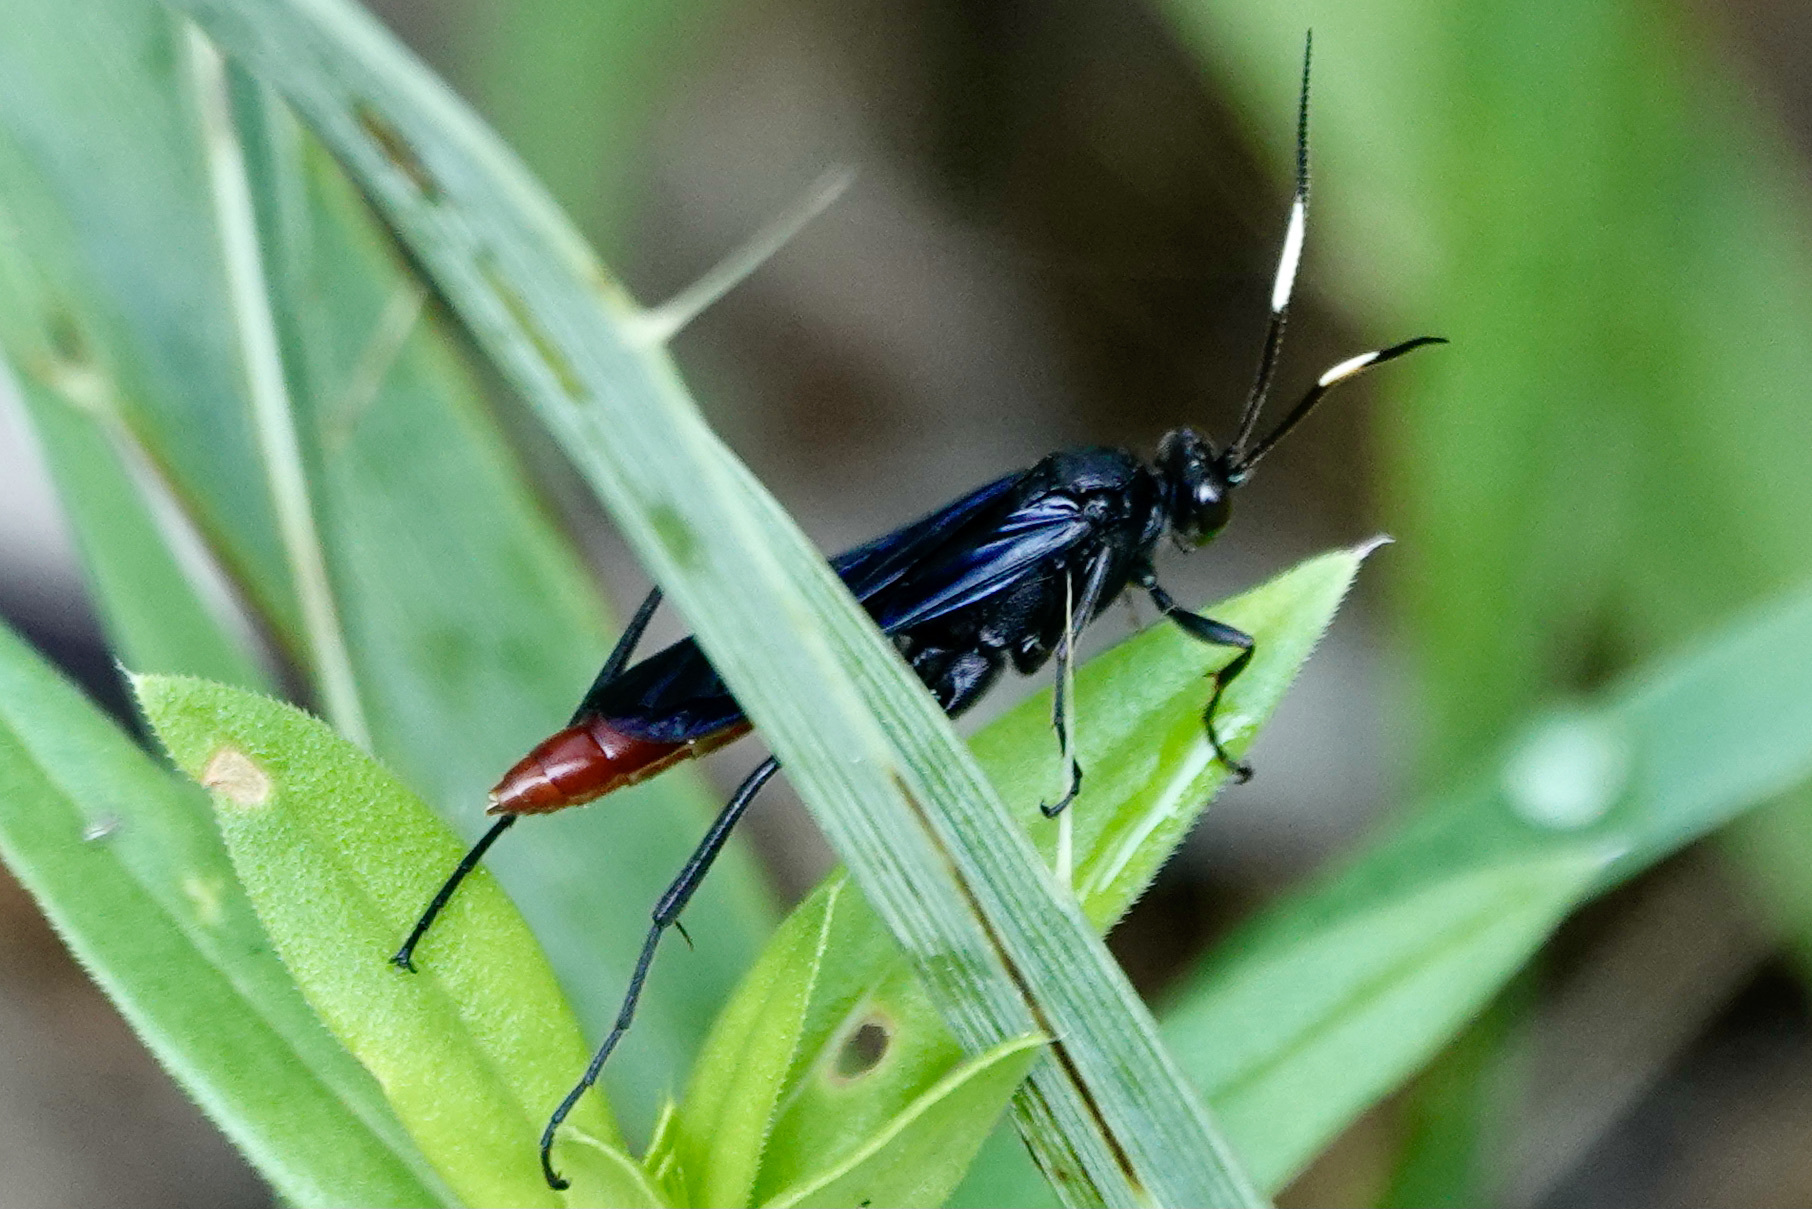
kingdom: Animalia
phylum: Arthropoda
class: Insecta
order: Hymenoptera
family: Ichneumonidae
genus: Limonethe
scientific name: Limonethe maurator
